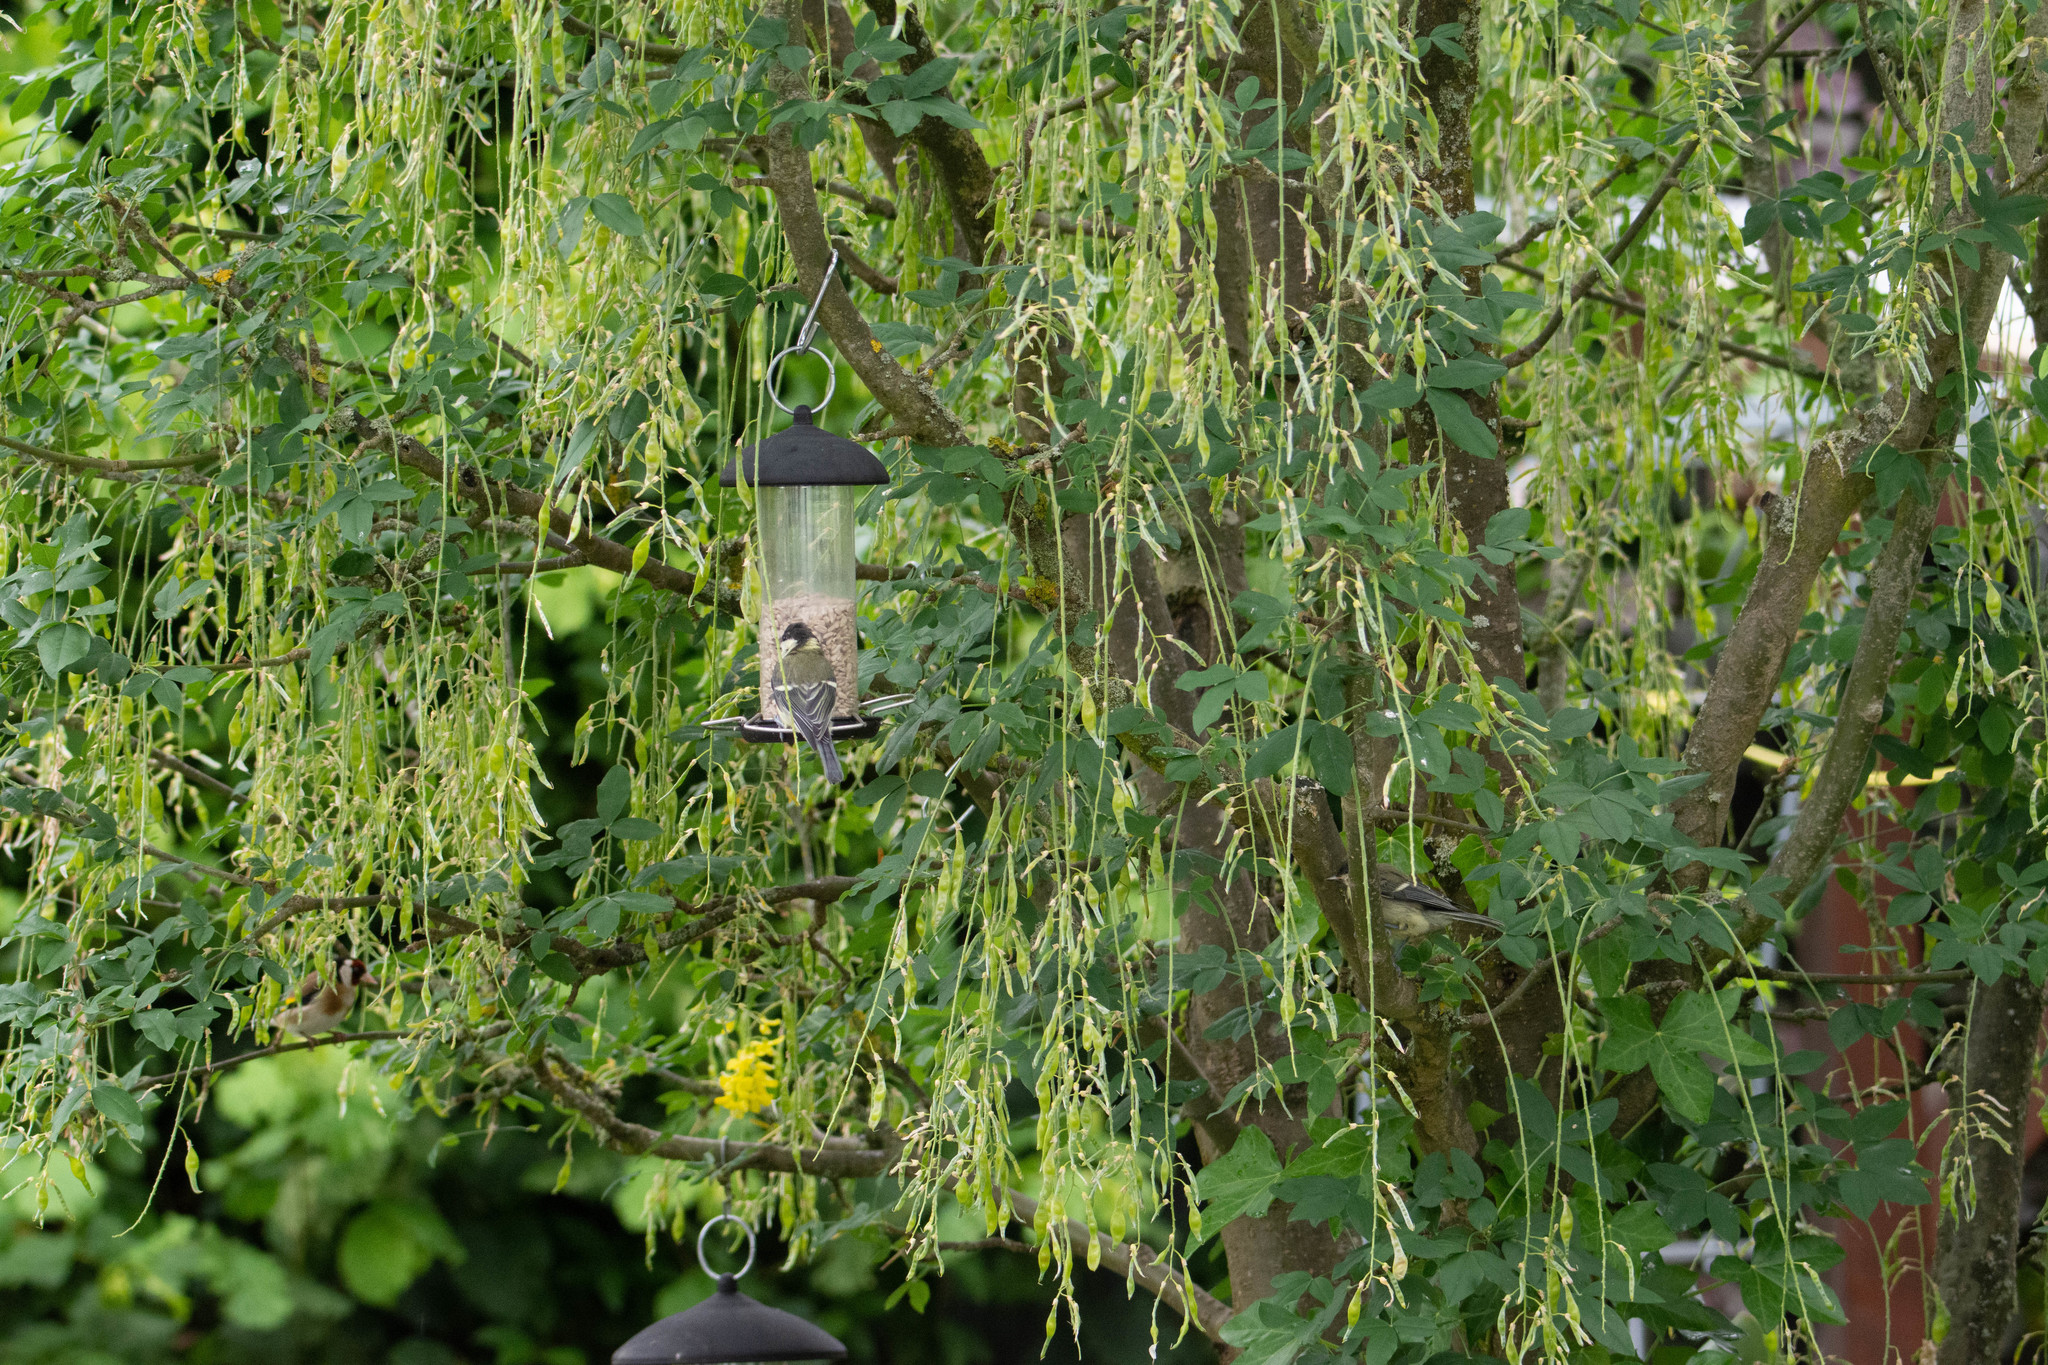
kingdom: Animalia
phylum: Chordata
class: Aves
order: Passeriformes
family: Paridae
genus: Parus
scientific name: Parus major
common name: Great tit
